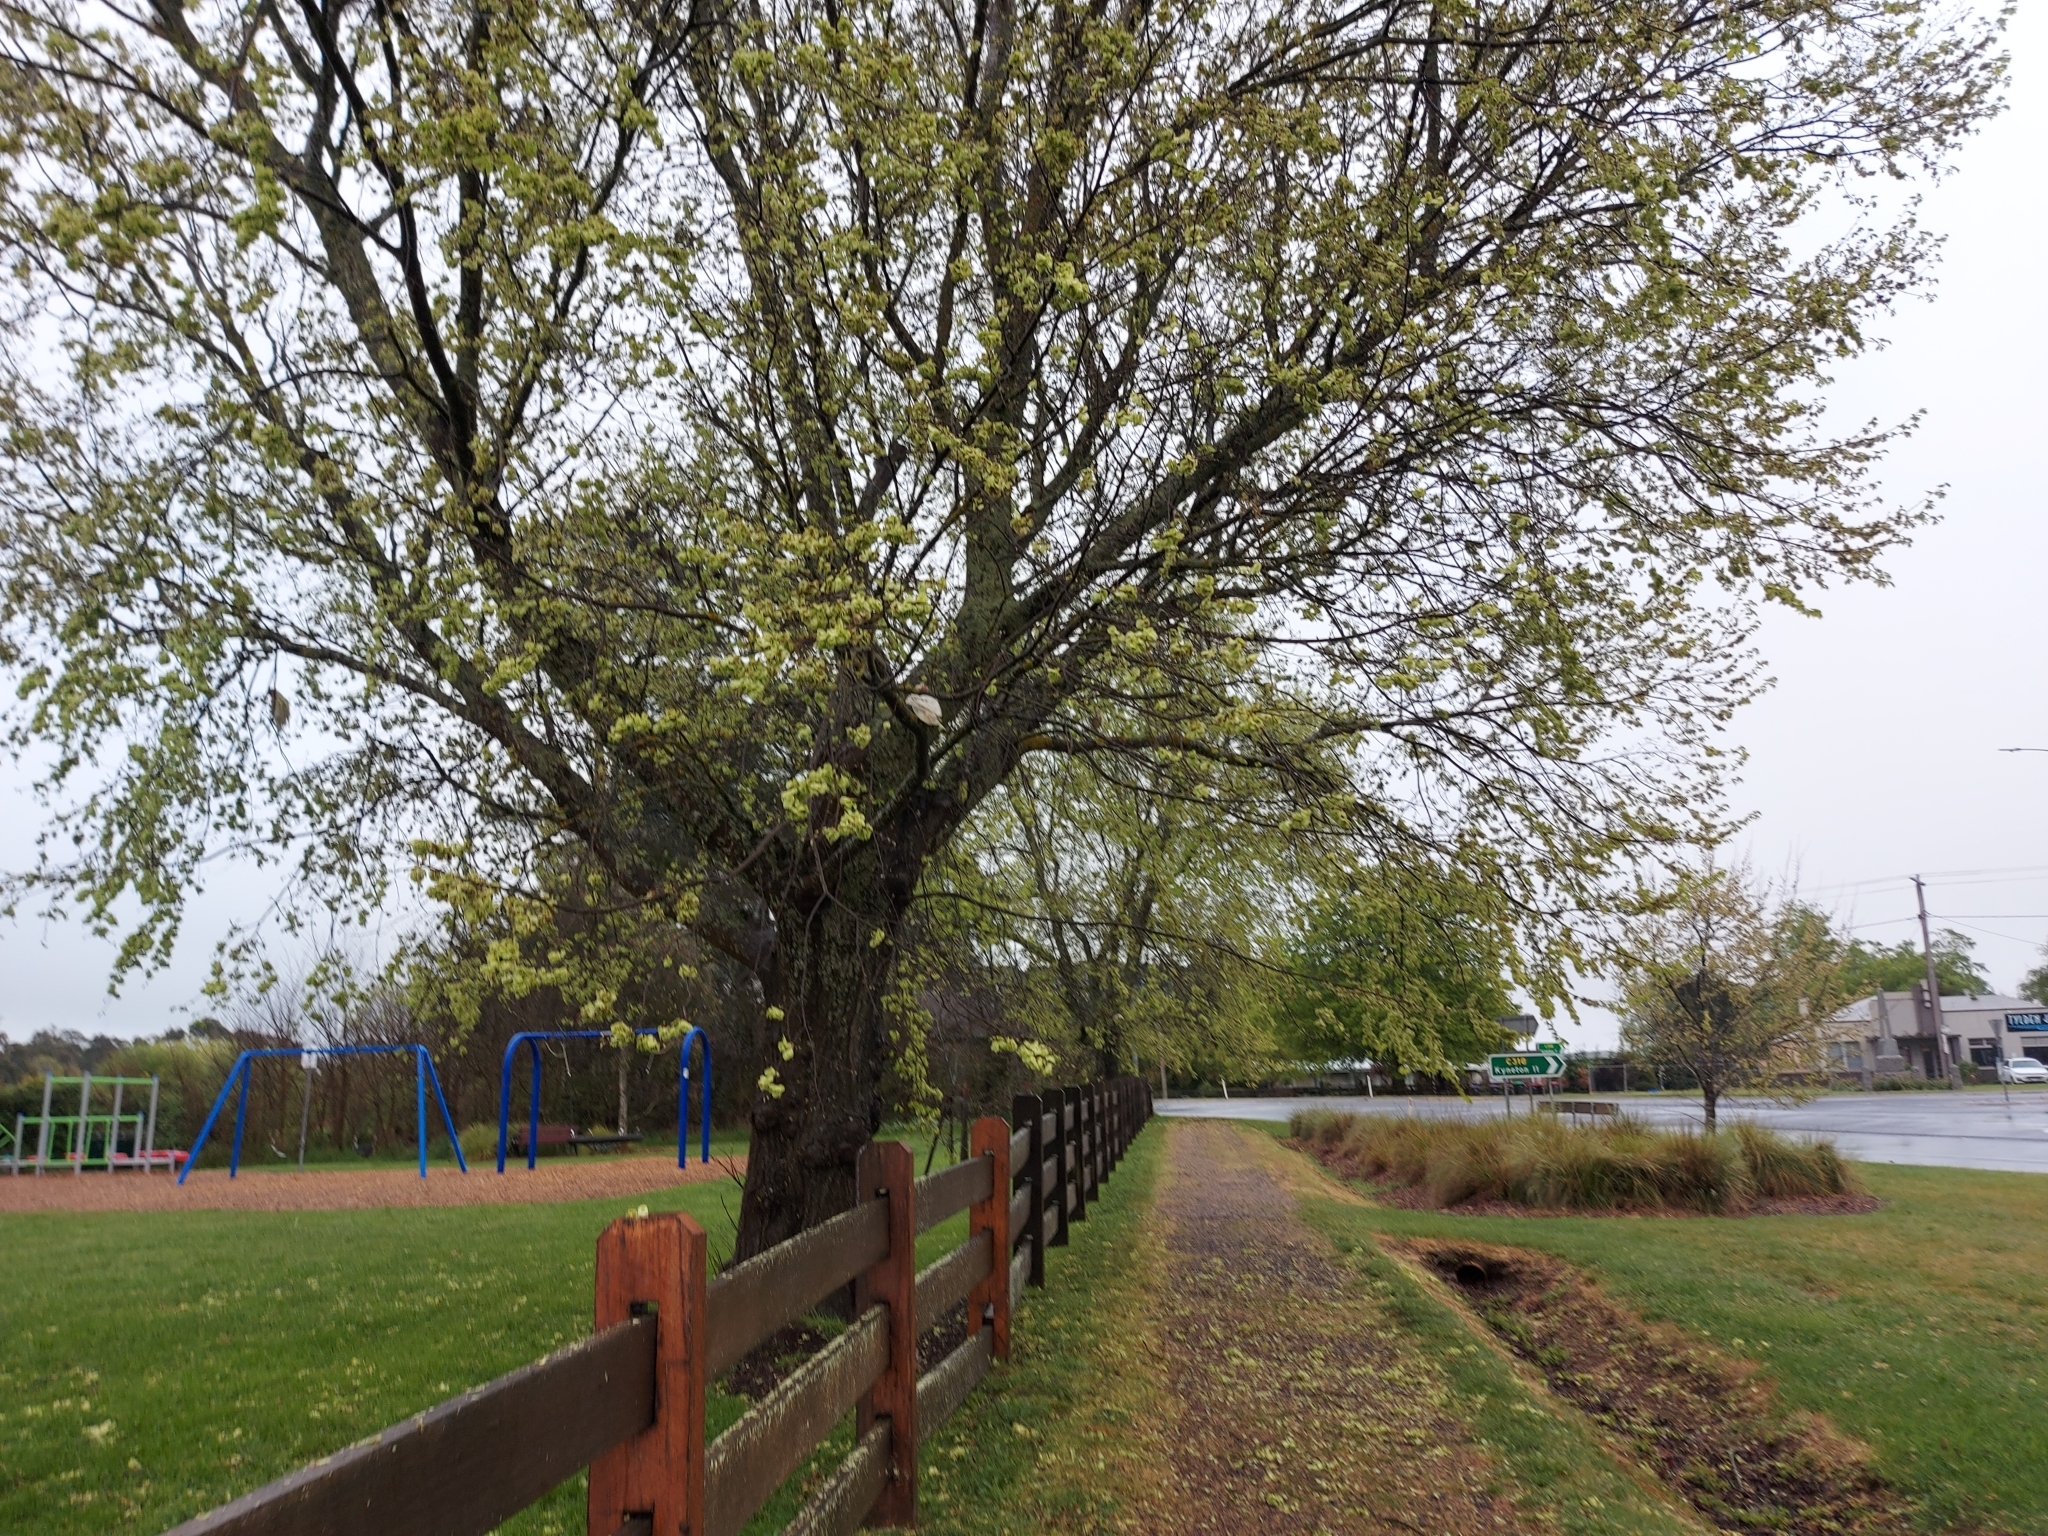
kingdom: Animalia
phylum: Chordata
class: Aves
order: Psittaciformes
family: Psittacidae
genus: Cacatua
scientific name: Cacatua tenuirostris
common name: Long-billed corella
